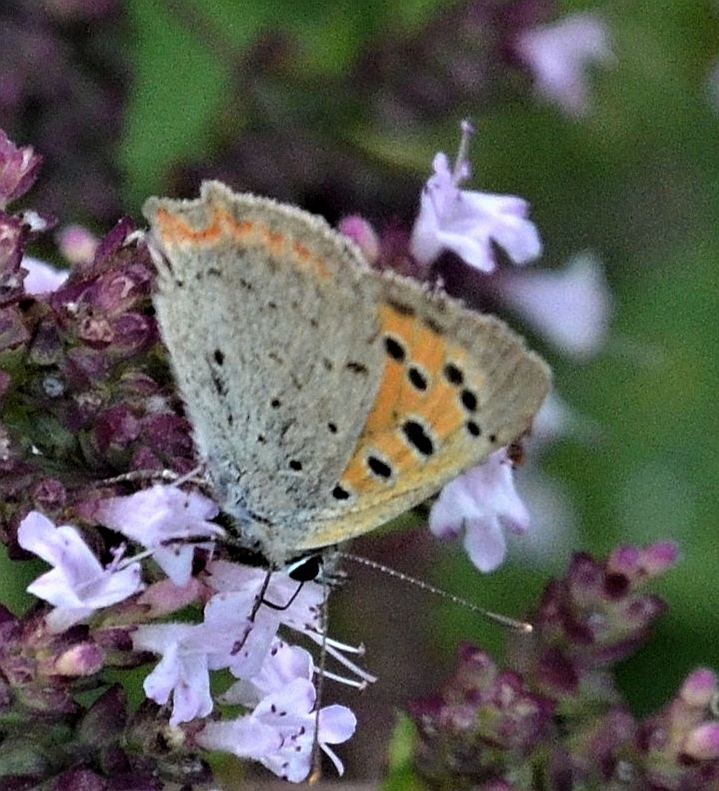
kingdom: Animalia
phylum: Arthropoda
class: Insecta
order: Lepidoptera
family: Lycaenidae
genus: Lycaena
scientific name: Lycaena phlaeas
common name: Small copper
